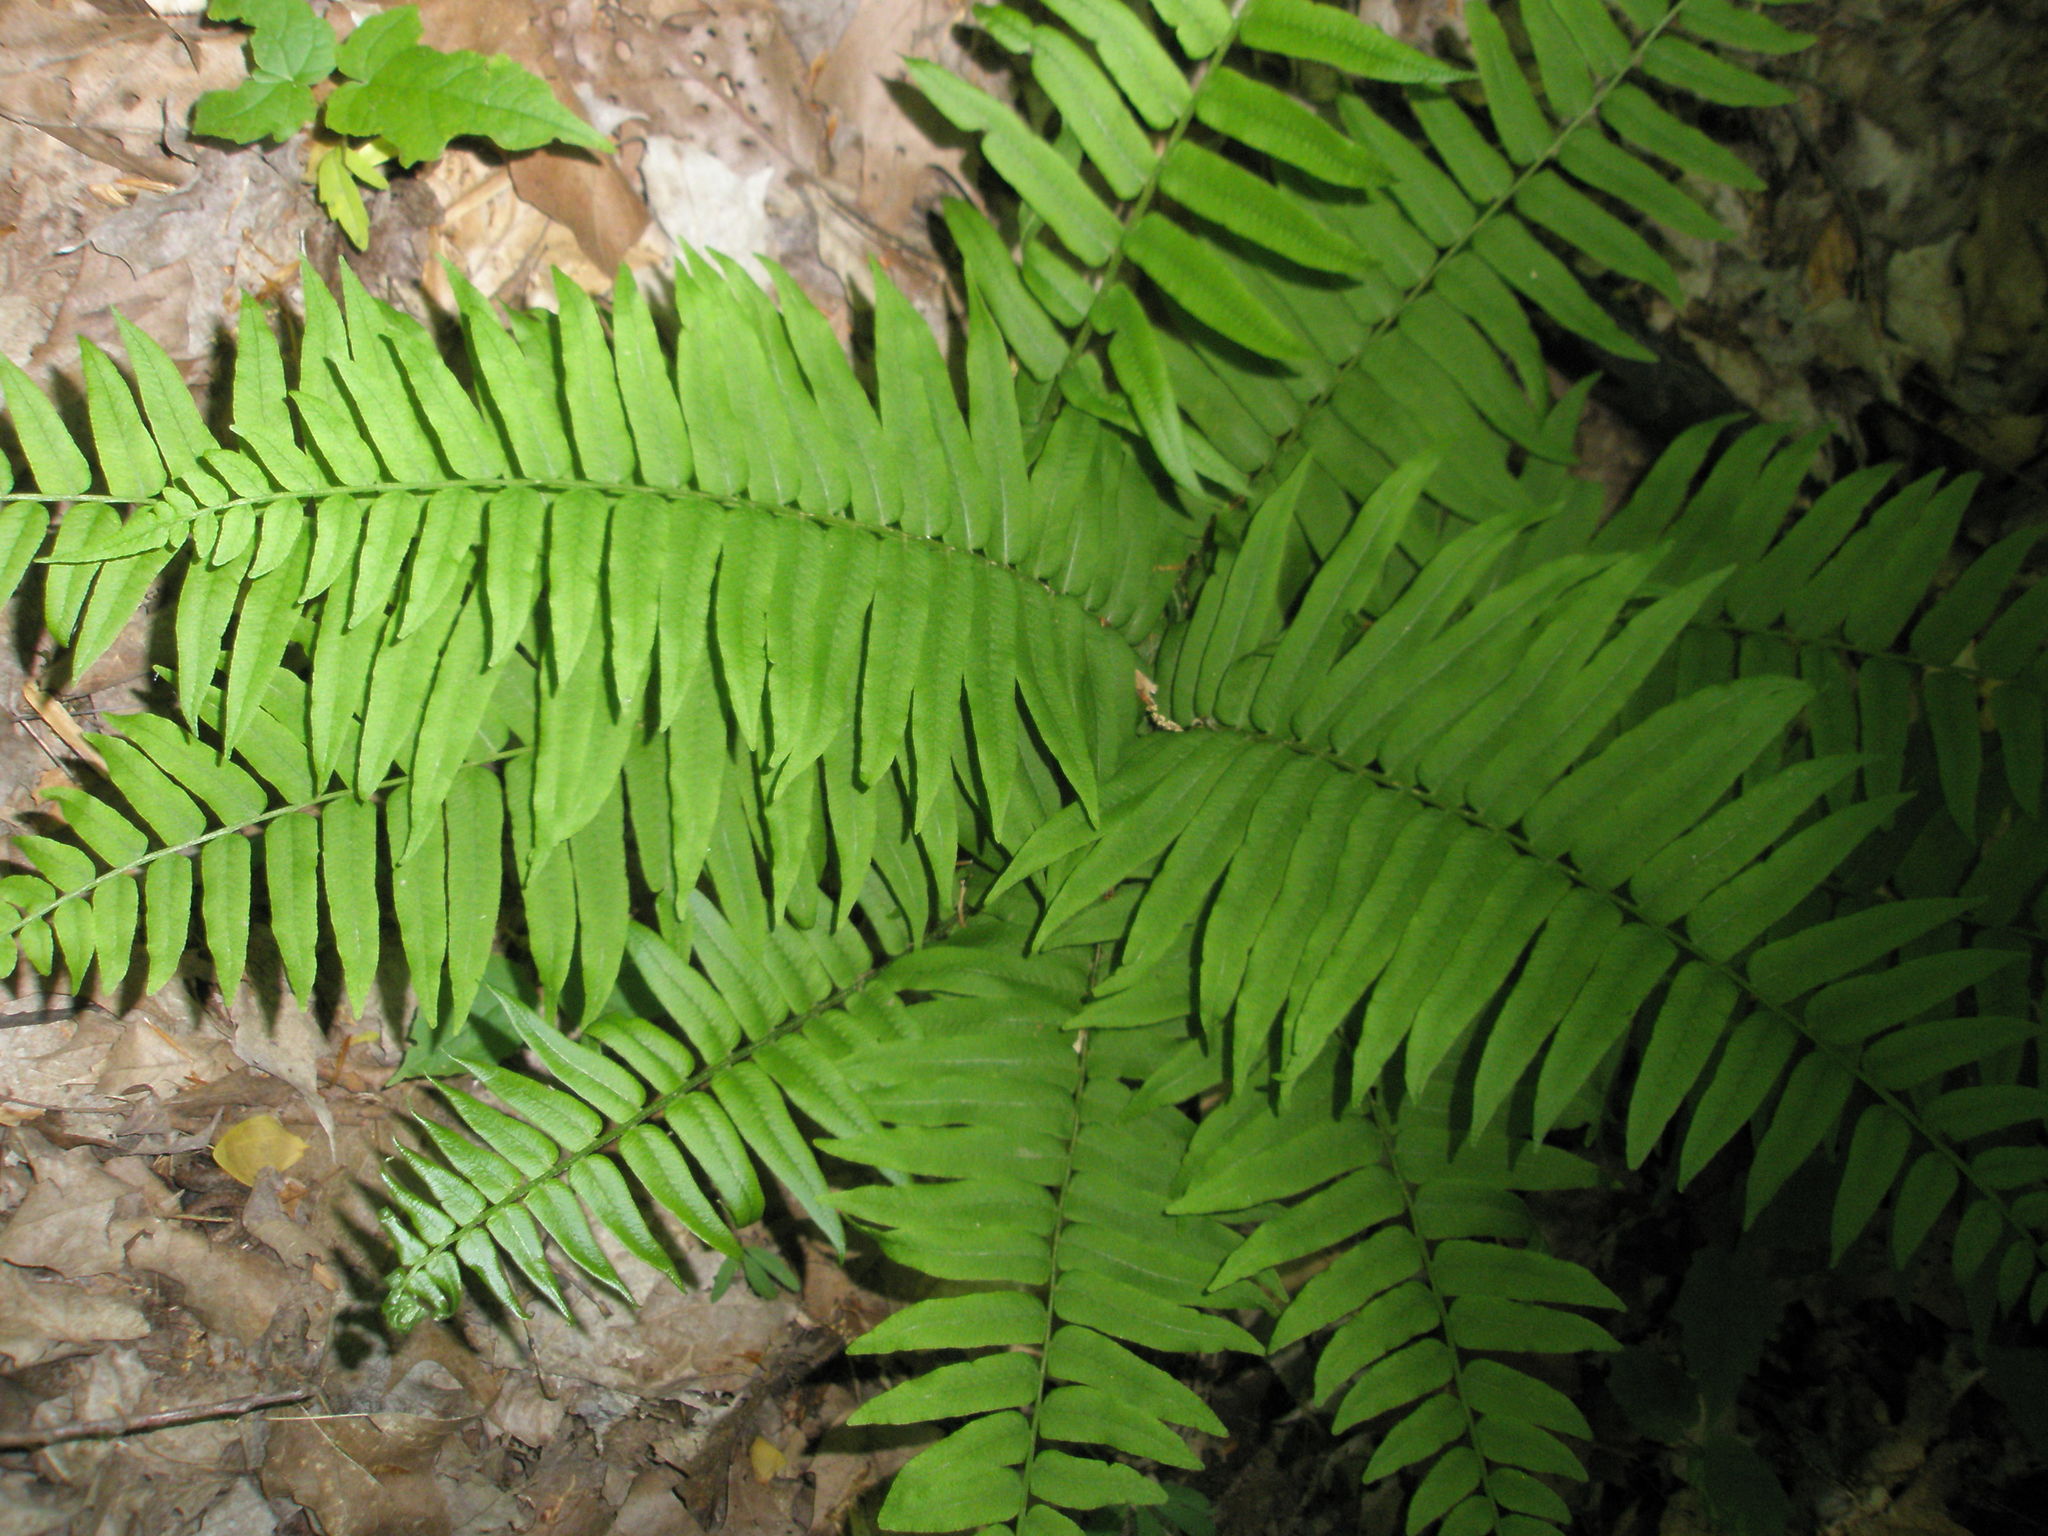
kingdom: Plantae
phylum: Tracheophyta
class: Polypodiopsida
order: Polypodiales
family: Diplaziopsidaceae
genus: Homalosorus
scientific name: Homalosorus pycnocarpos
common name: Glade fern
